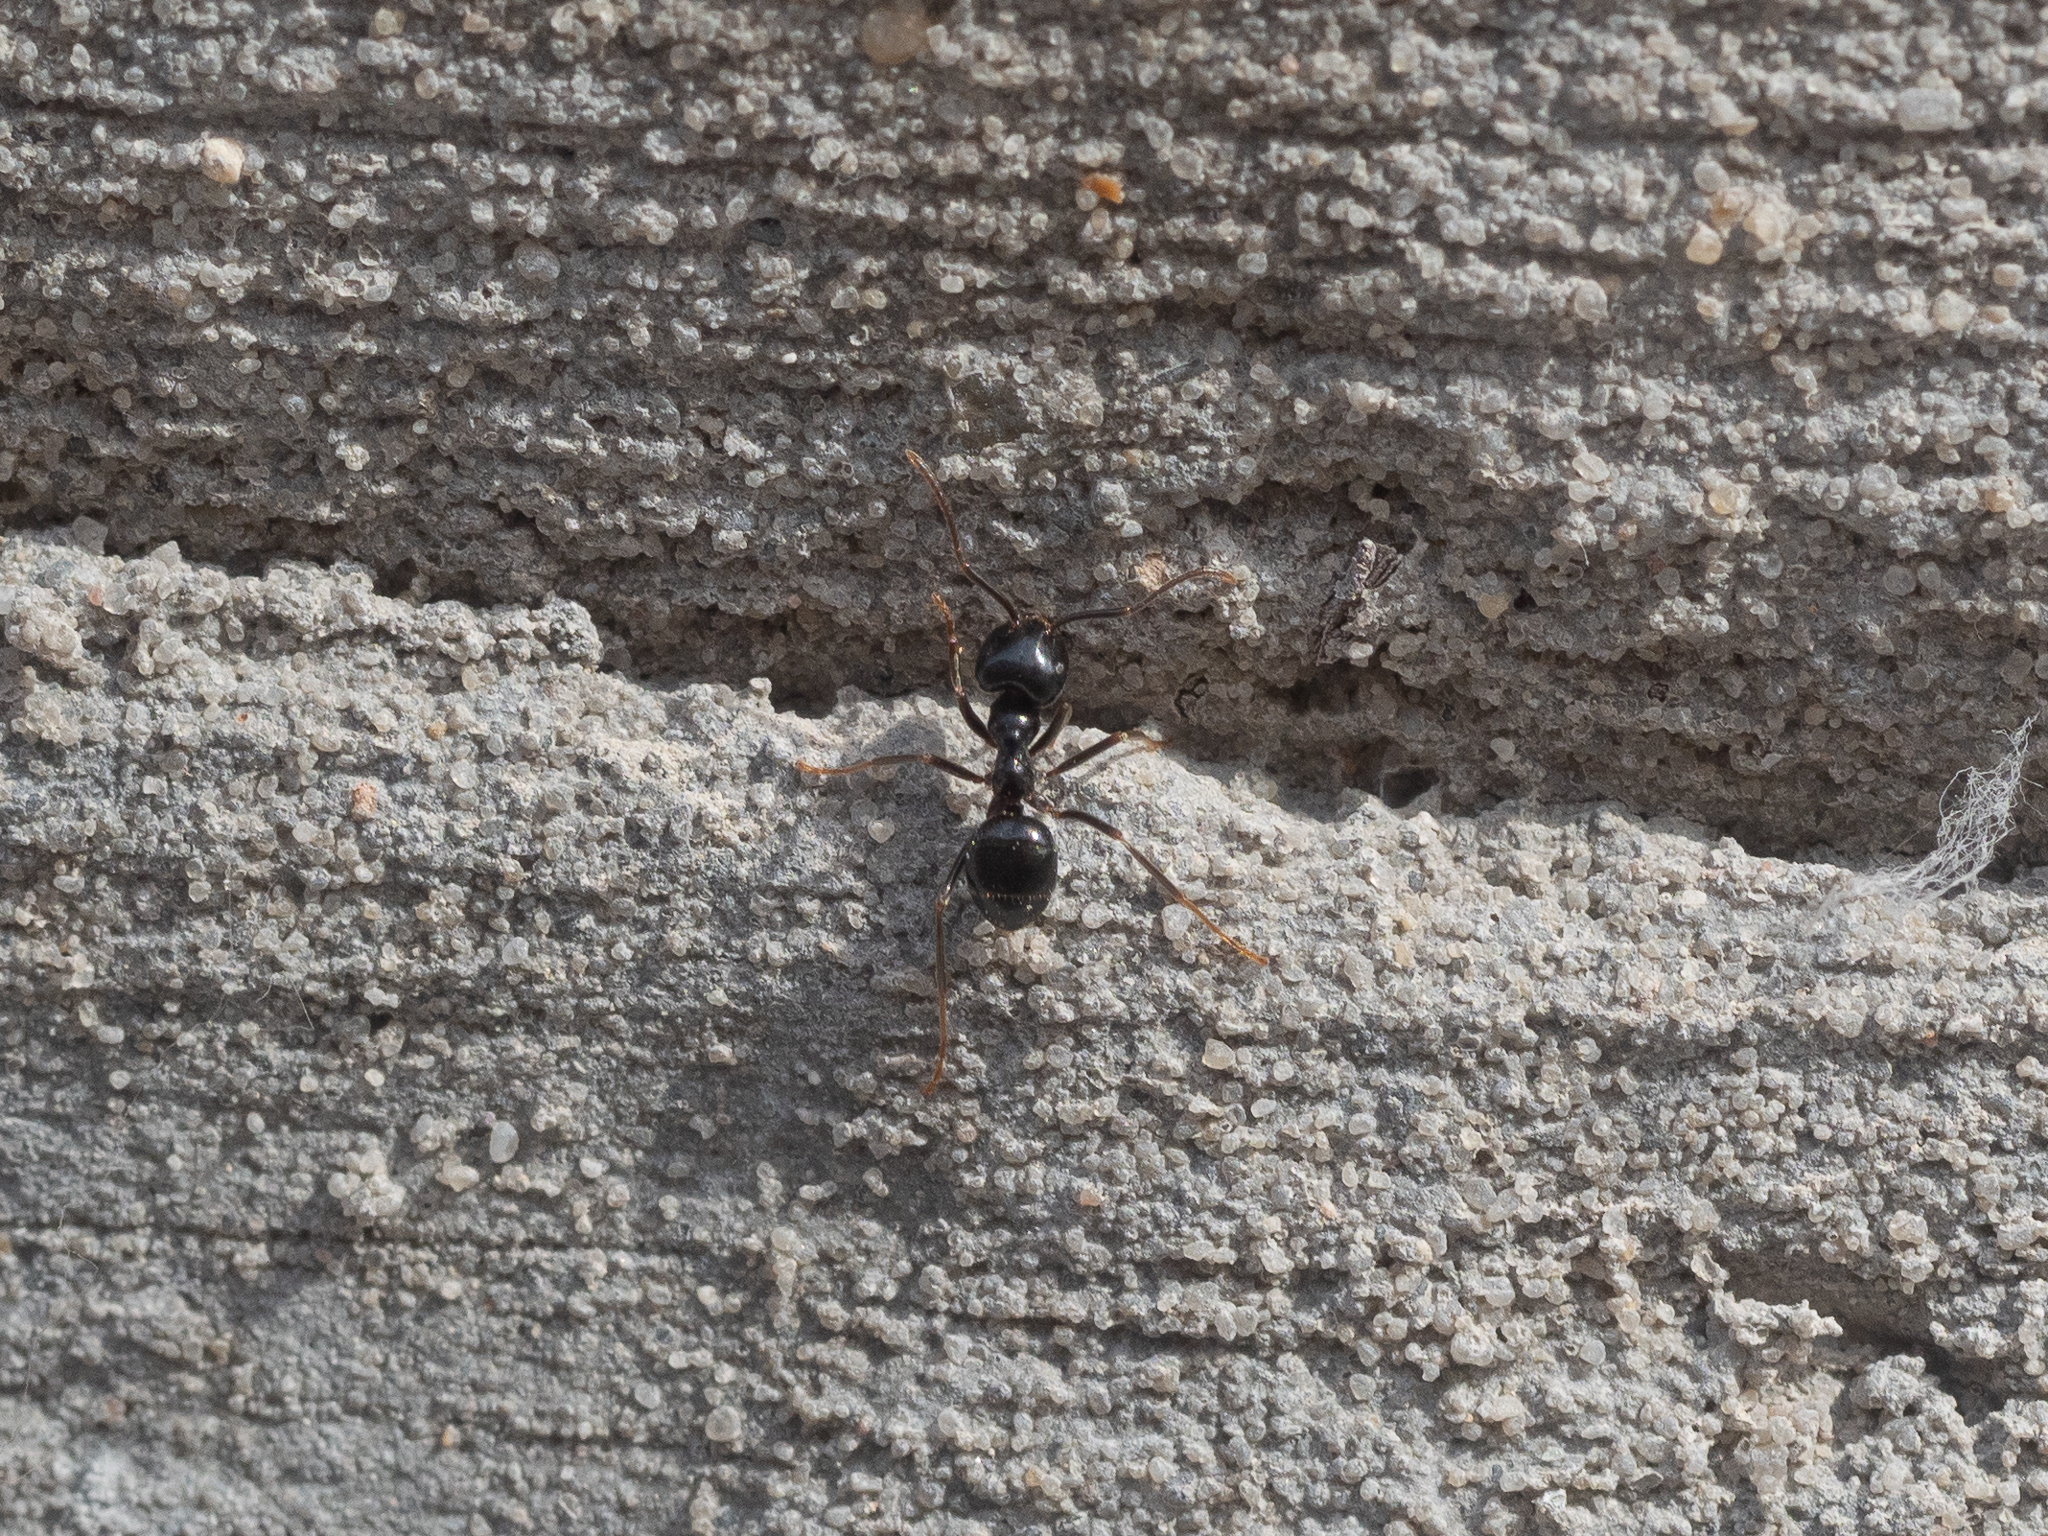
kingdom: Animalia
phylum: Arthropoda
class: Insecta
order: Hymenoptera
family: Formicidae
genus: Lasius
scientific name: Lasius fuliginosus
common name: Jet ant
